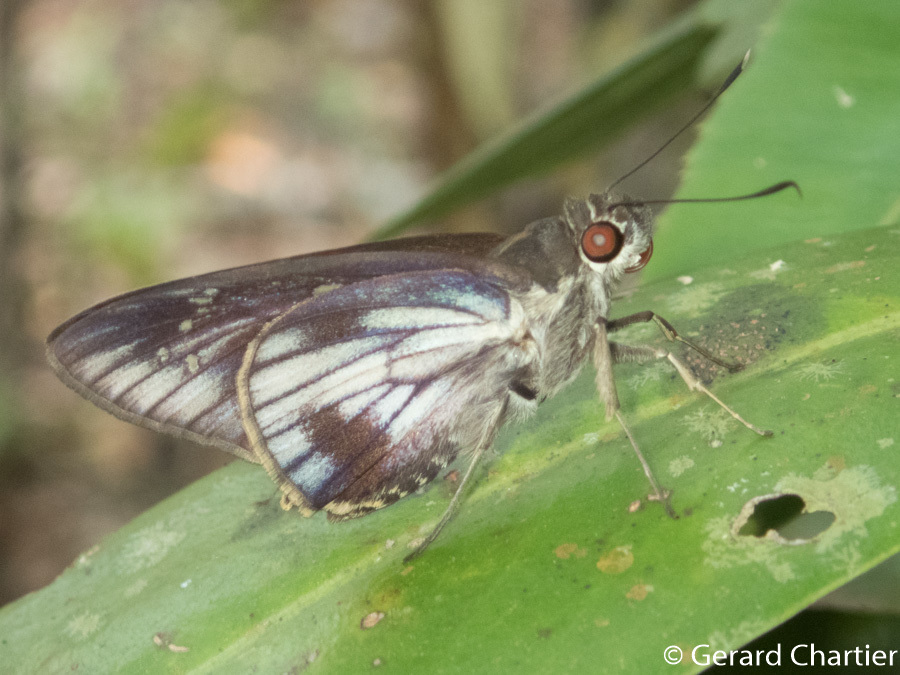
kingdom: Animalia
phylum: Arthropoda
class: Insecta
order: Lepidoptera
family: Hesperiidae
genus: Unkana
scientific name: Unkana ambasa
